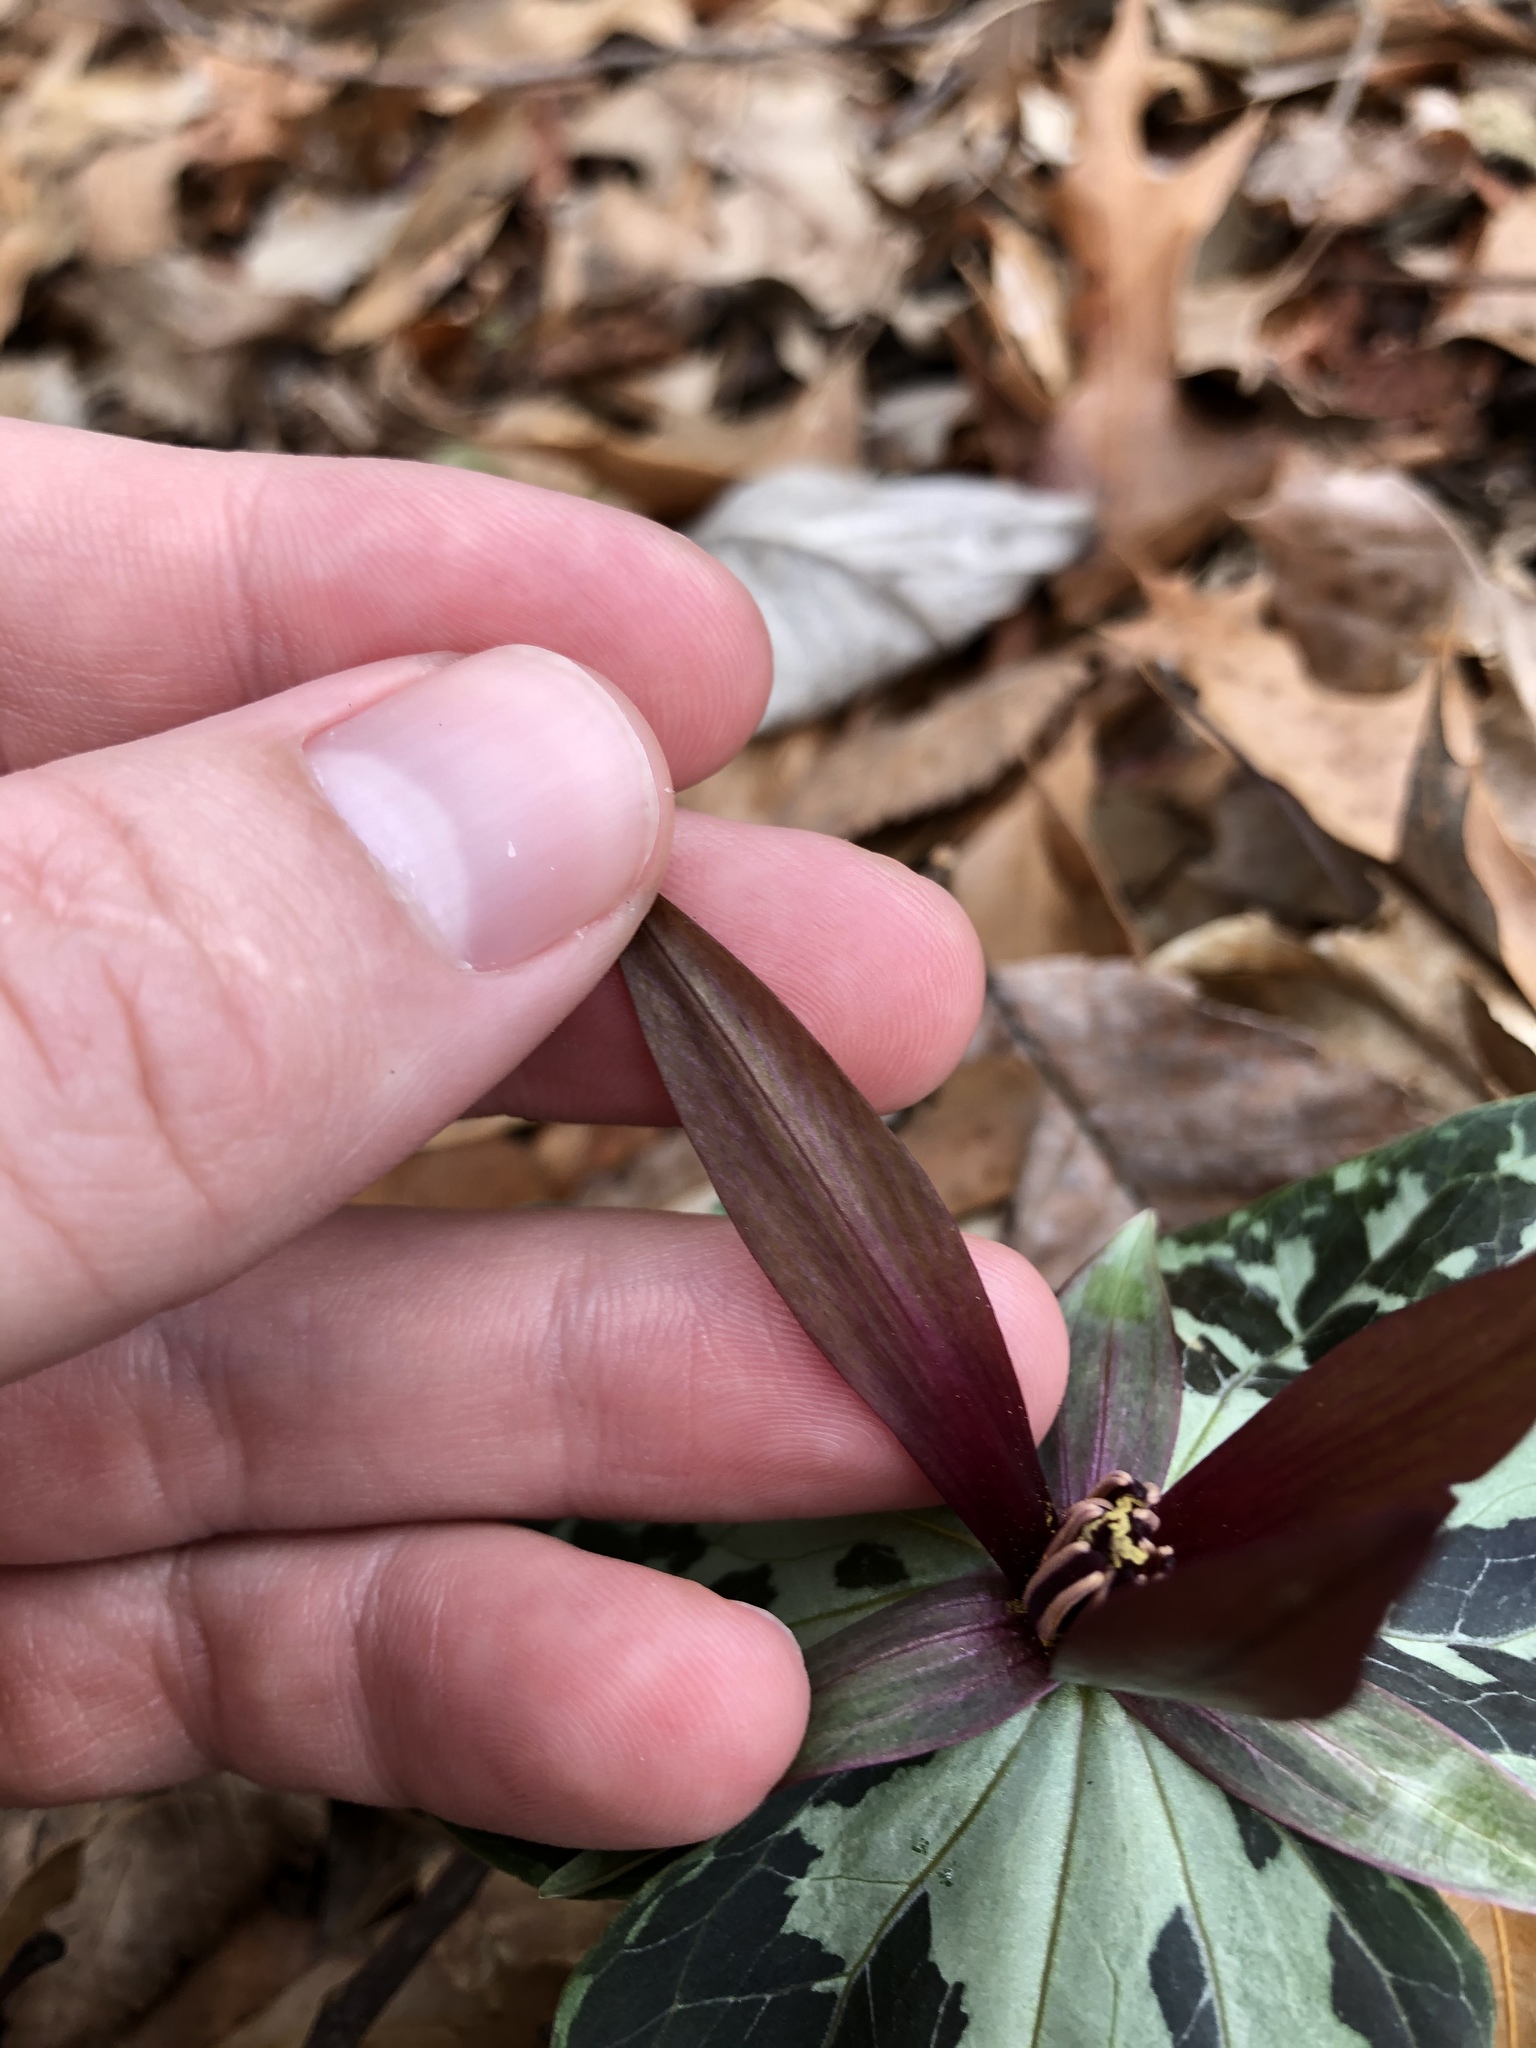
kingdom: Plantae
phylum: Tracheophyta
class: Liliopsida
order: Liliales
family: Melanthiaceae
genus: Trillium
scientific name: Trillium cuneatum
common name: Cuneate trillium
